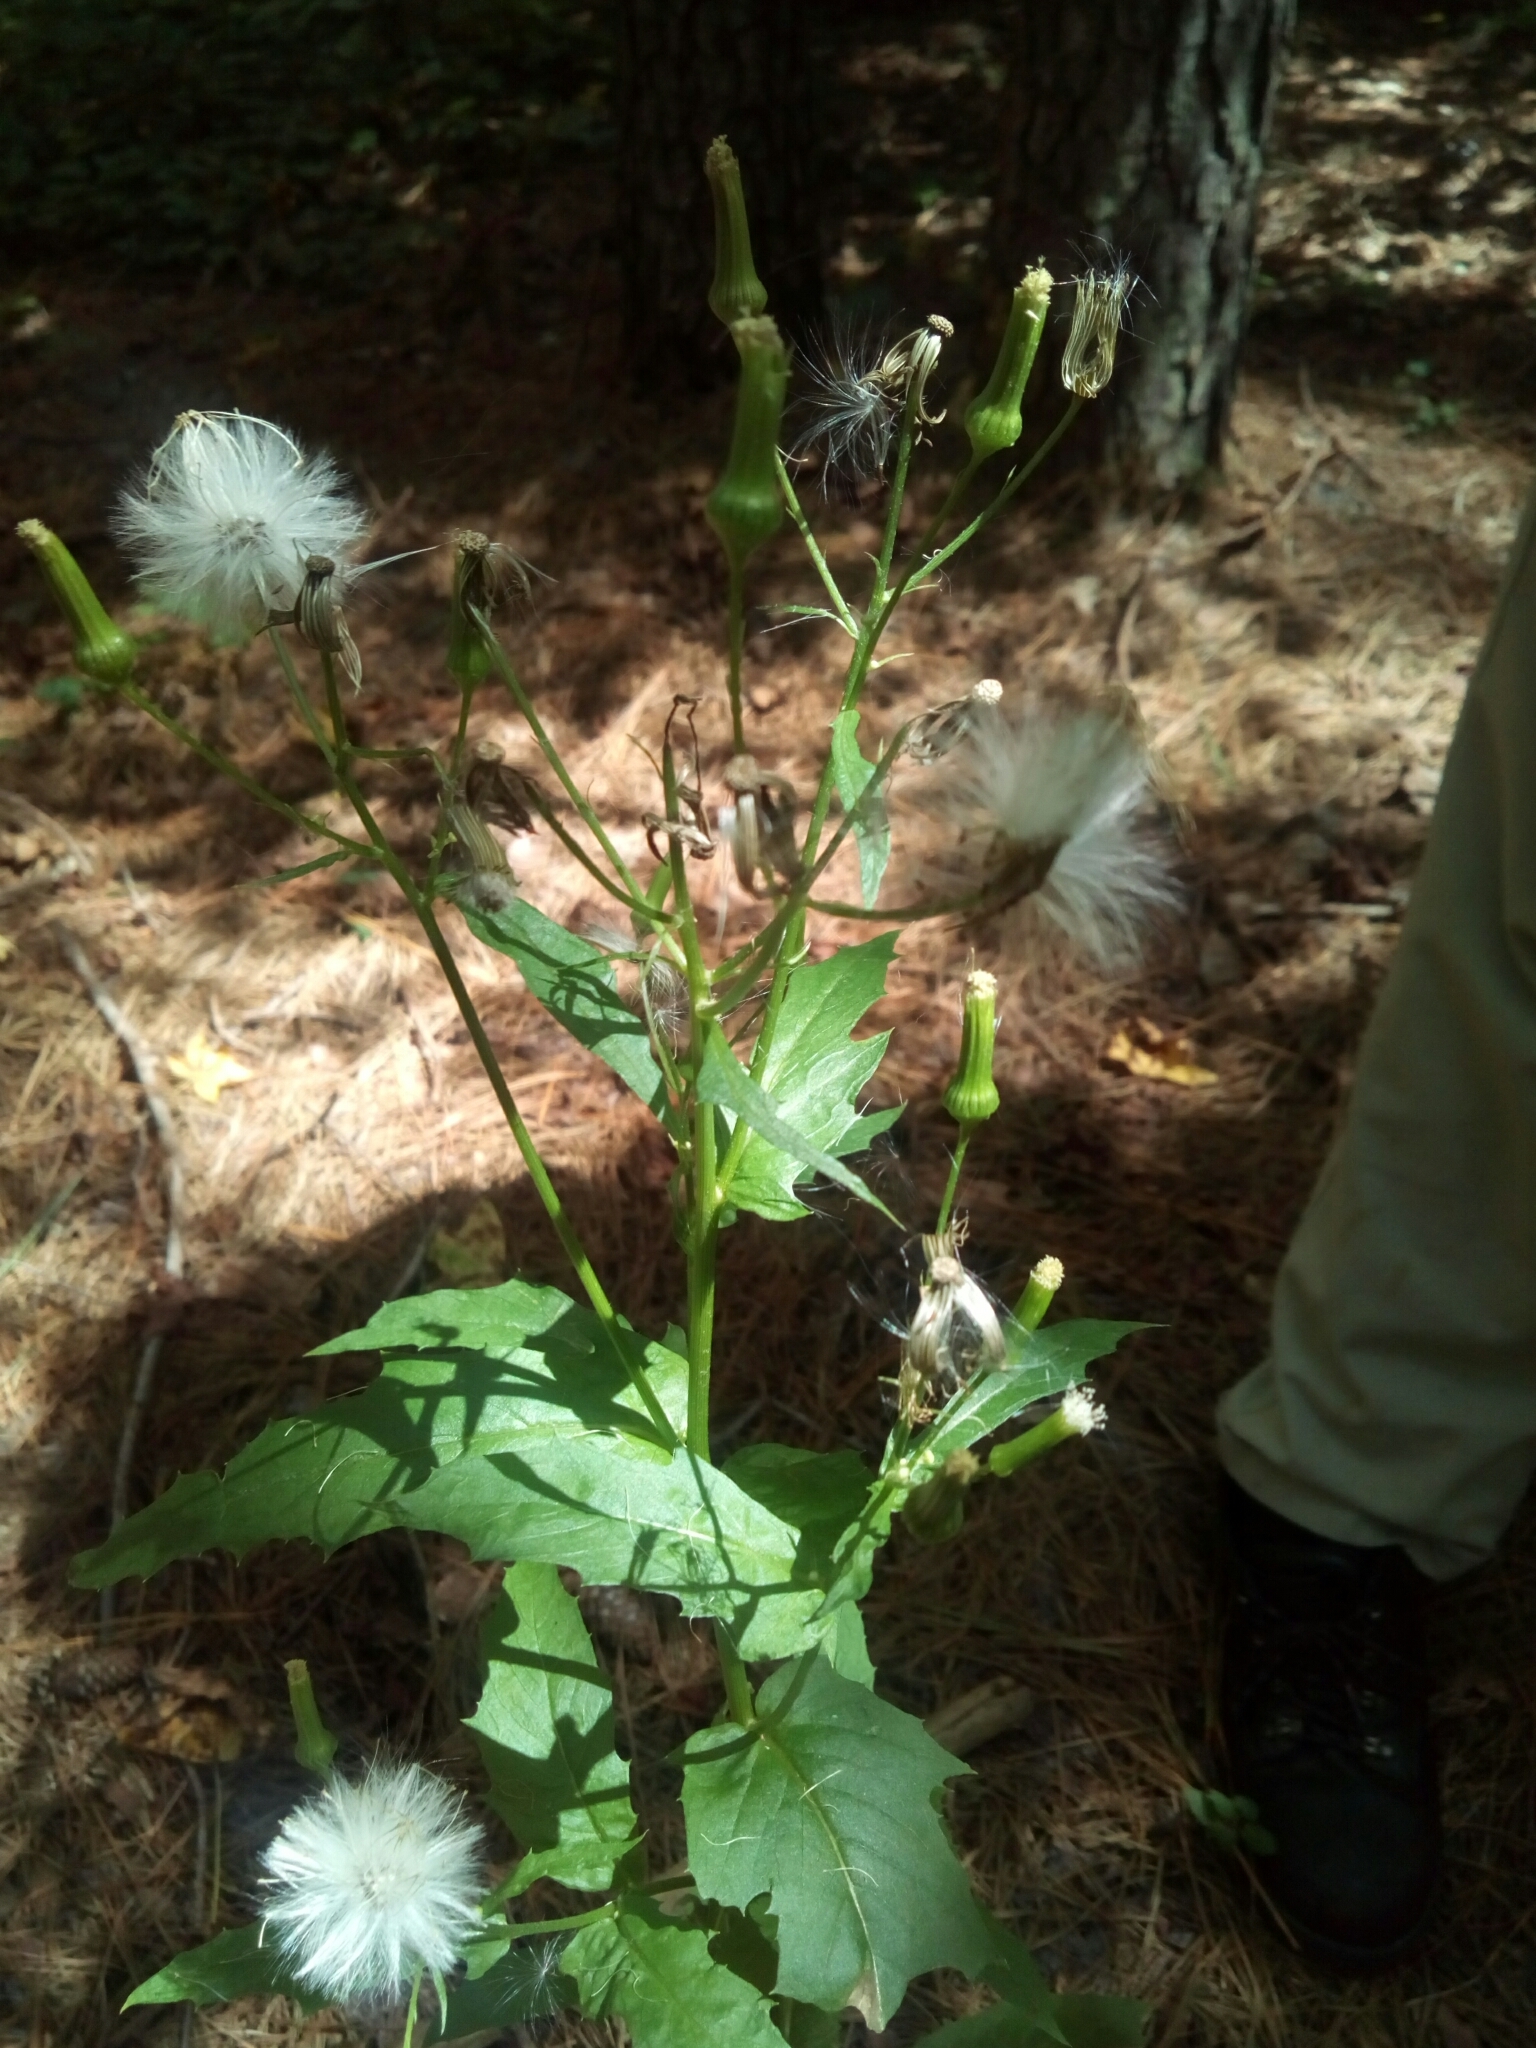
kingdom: Plantae
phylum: Tracheophyta
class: Magnoliopsida
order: Asterales
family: Asteraceae
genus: Erechtites
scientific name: Erechtites hieraciifolius
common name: American burnweed
